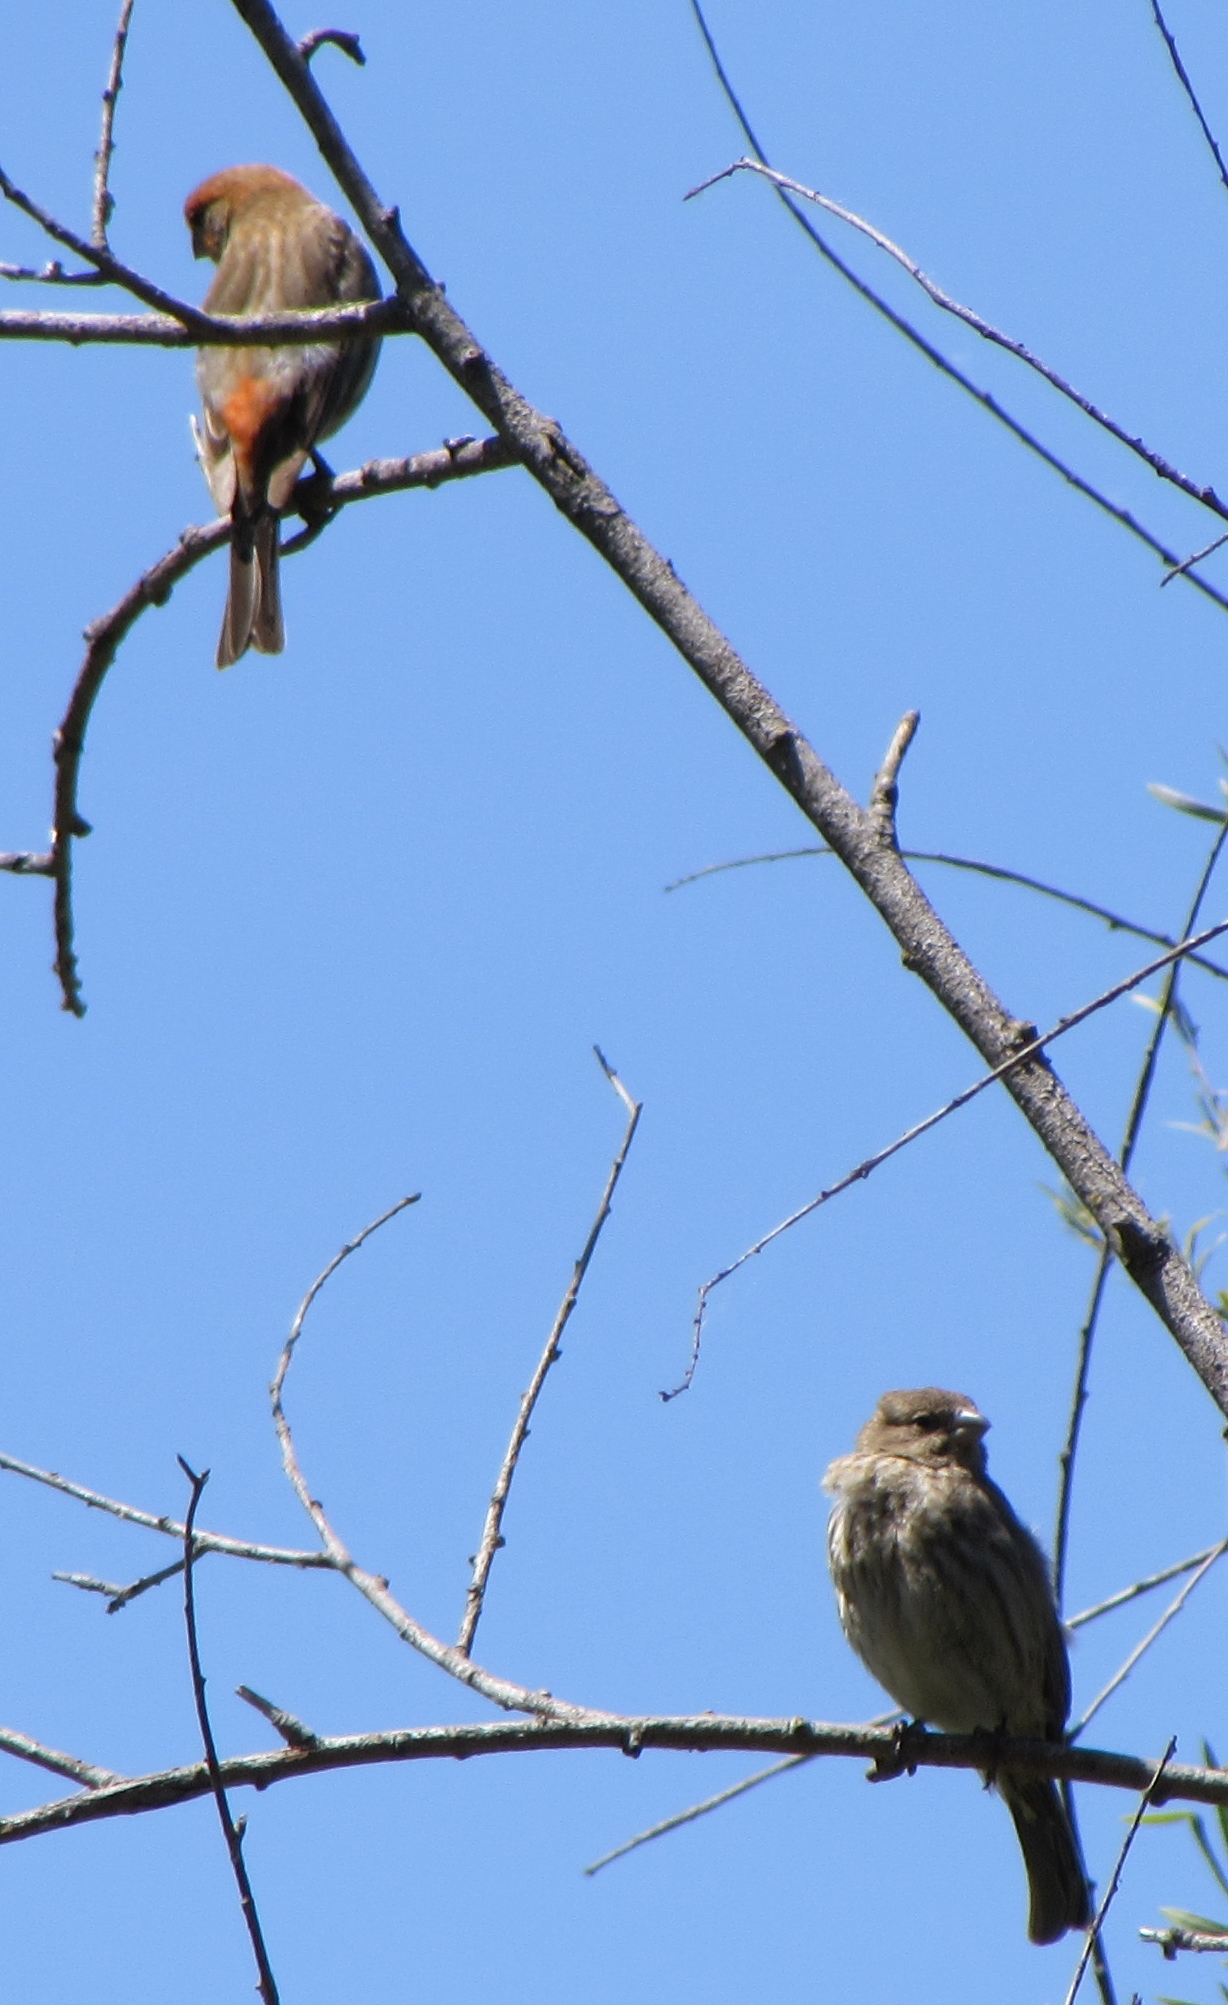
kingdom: Animalia
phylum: Chordata
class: Aves
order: Passeriformes
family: Fringillidae
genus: Haemorhous
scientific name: Haemorhous mexicanus
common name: House finch
